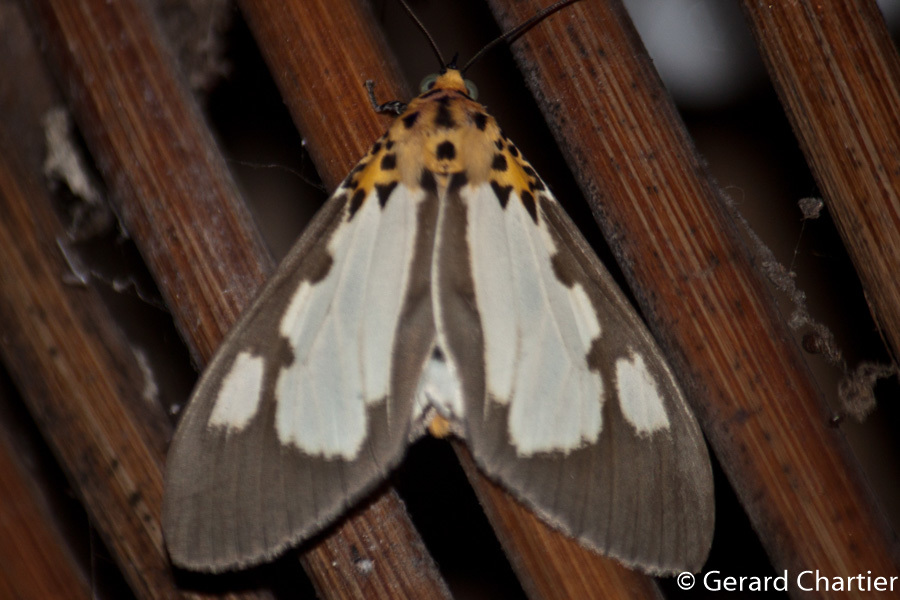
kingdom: Animalia
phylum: Arthropoda
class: Insecta
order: Lepidoptera
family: Erebidae
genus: Asota
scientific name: Asota plana
